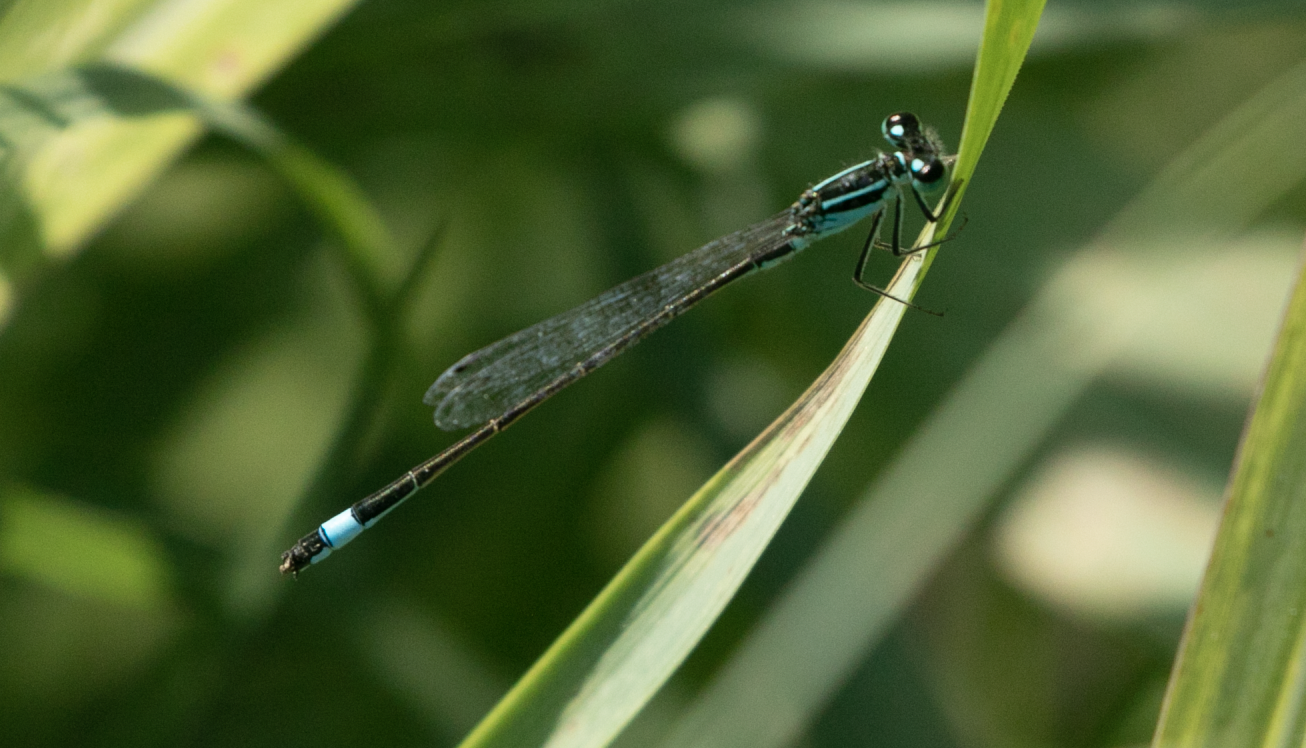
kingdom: Animalia
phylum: Arthropoda
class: Insecta
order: Odonata
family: Coenagrionidae
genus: Ischnura
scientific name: Ischnura elegans
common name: Blue-tailed damselfly
